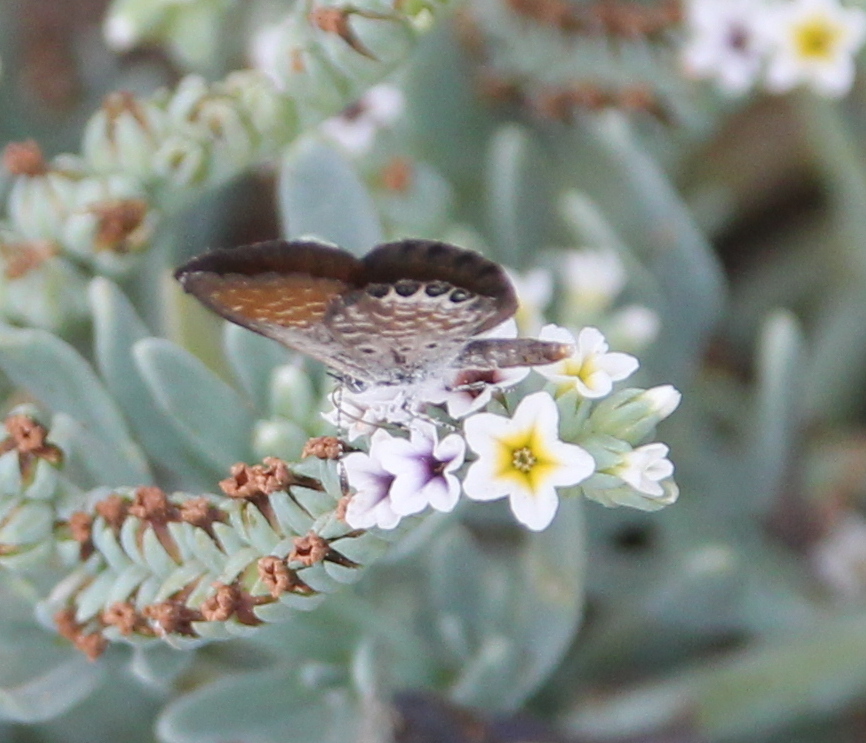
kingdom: Animalia
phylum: Arthropoda
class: Insecta
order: Lepidoptera
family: Lycaenidae
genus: Brephidium
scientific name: Brephidium exilis
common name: Pygmy blue
